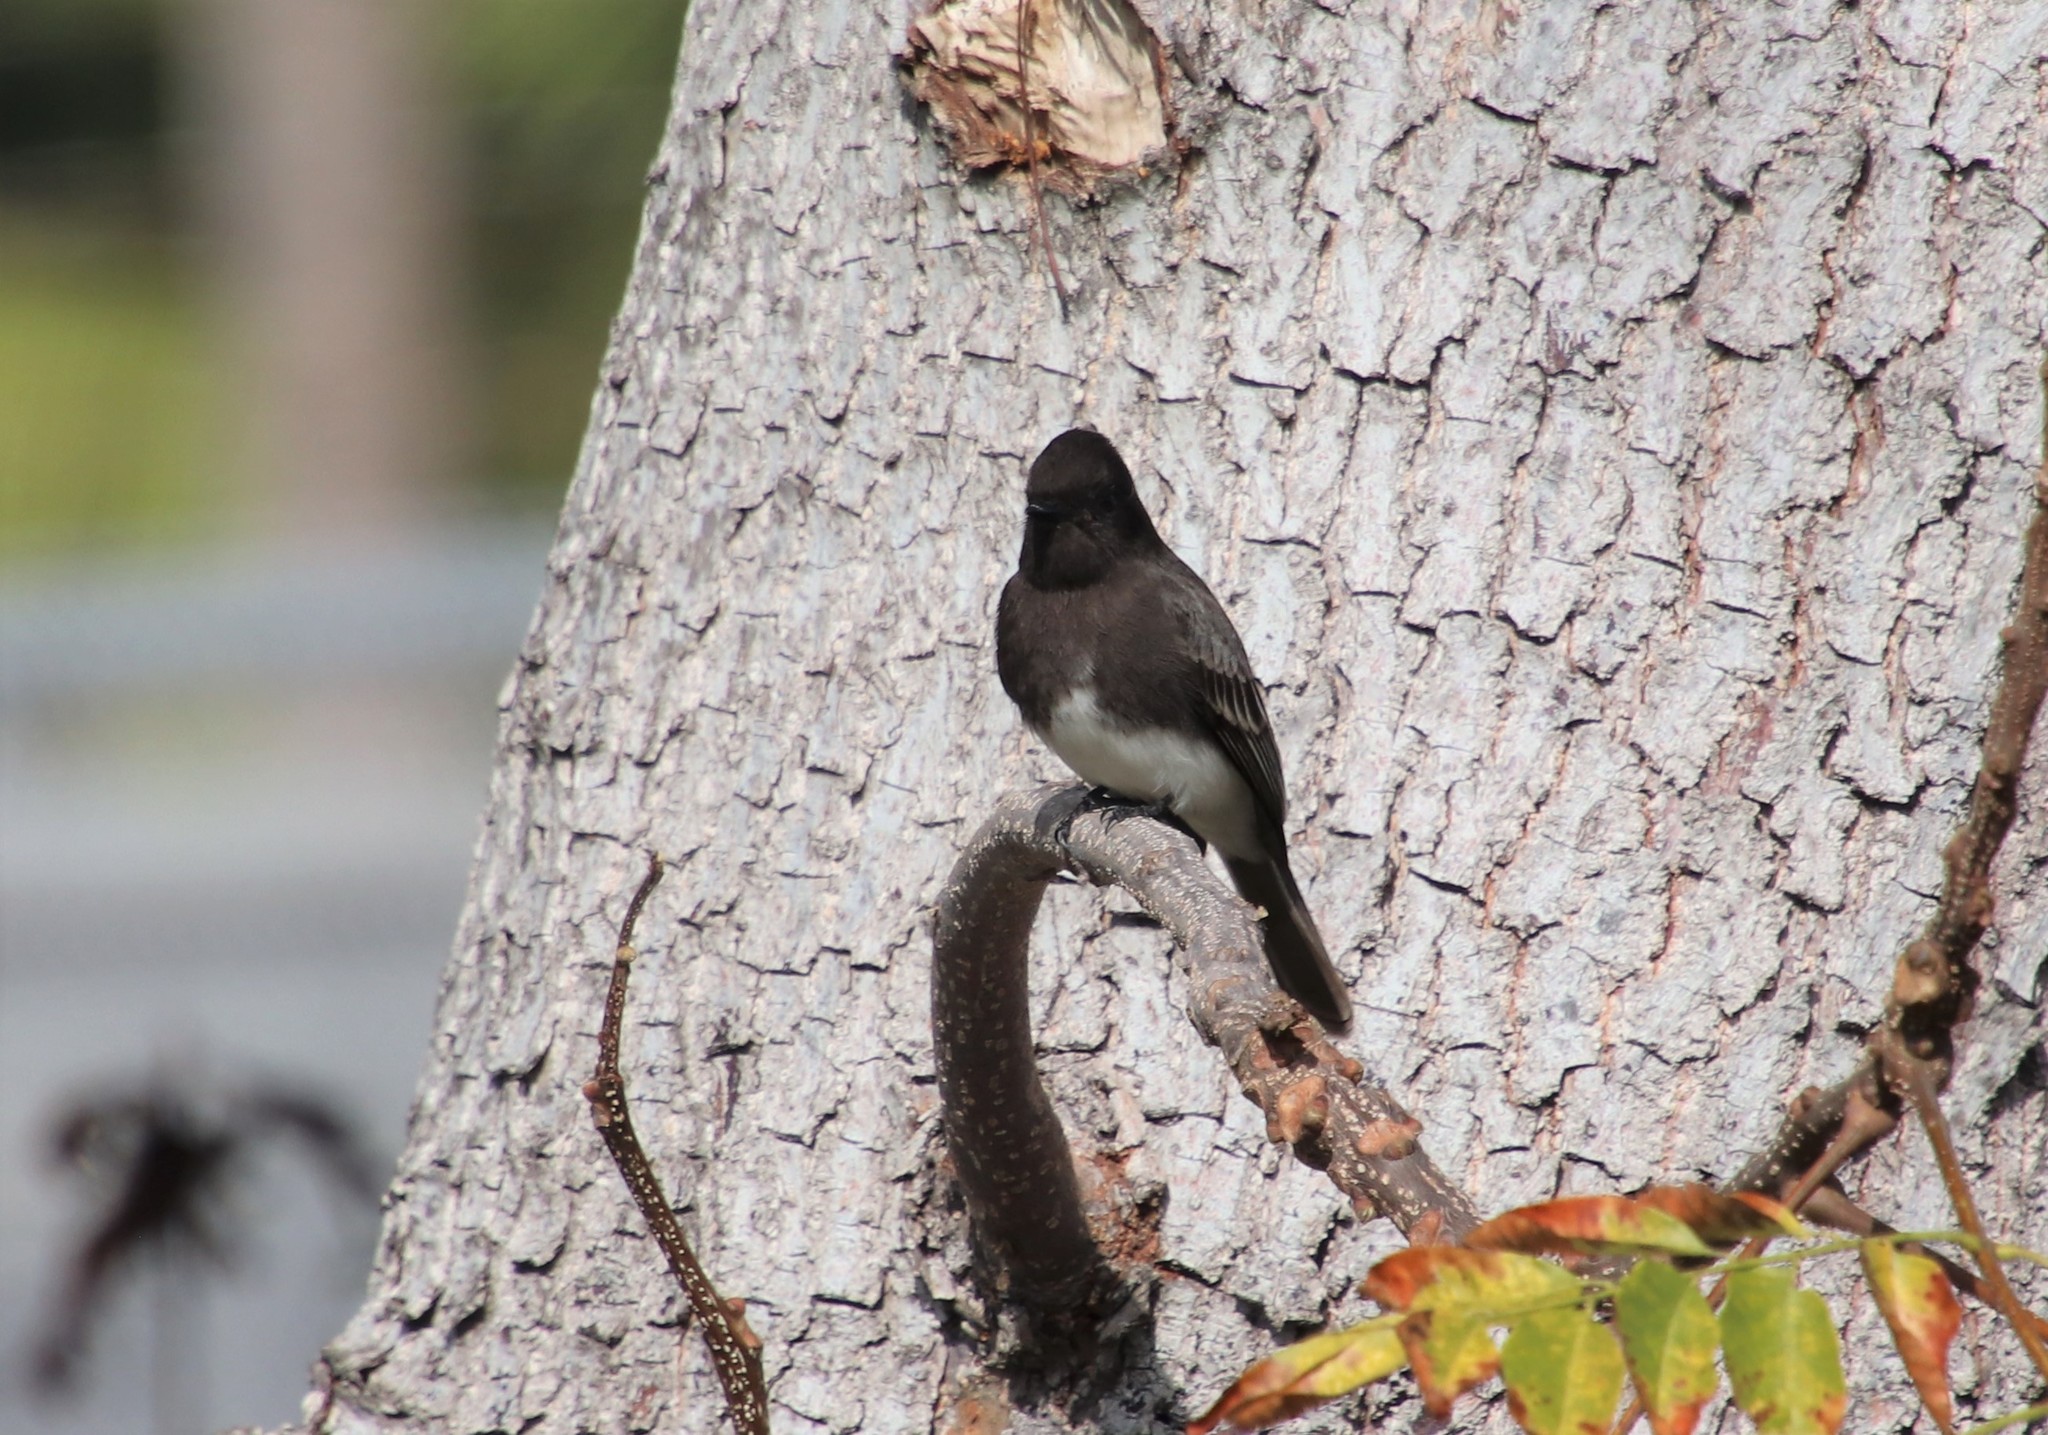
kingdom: Animalia
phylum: Chordata
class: Aves
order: Passeriformes
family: Tyrannidae
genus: Sayornis
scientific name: Sayornis nigricans
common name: Black phoebe
